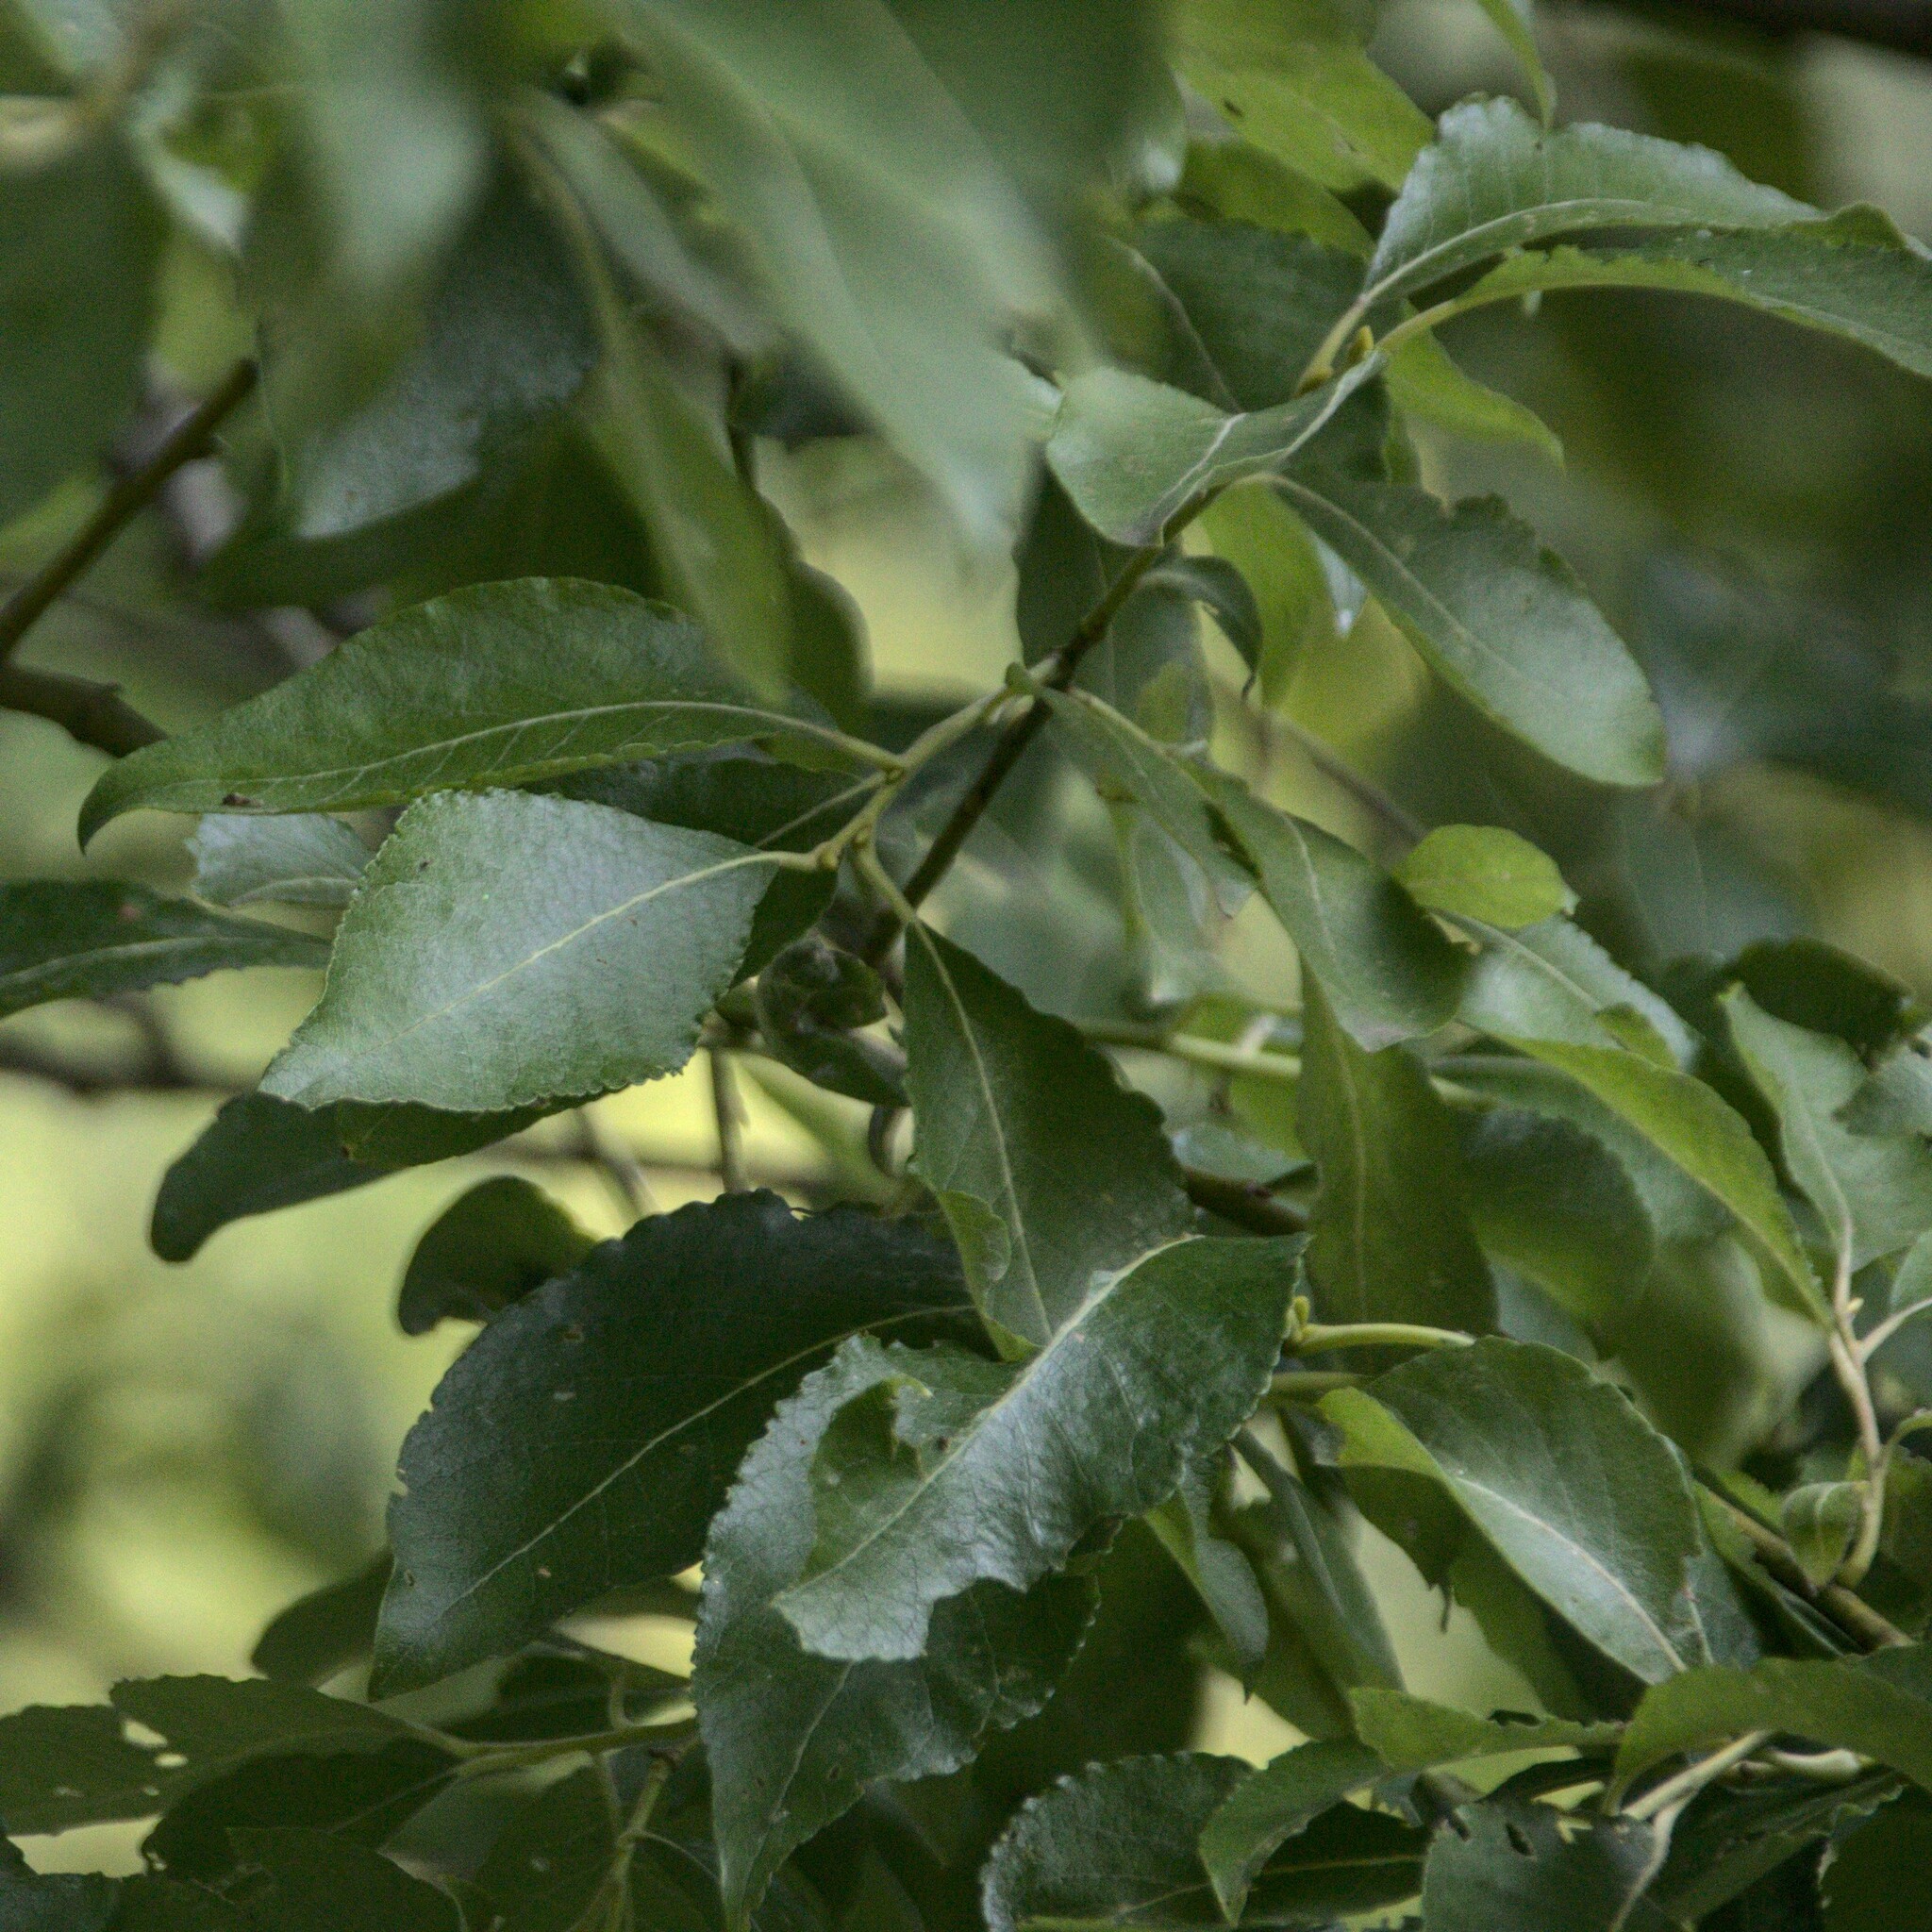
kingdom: Plantae
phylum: Tracheophyta
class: Magnoliopsida
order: Malpighiales
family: Salicaceae
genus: Salix
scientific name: Salix caprea
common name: Goat willow
